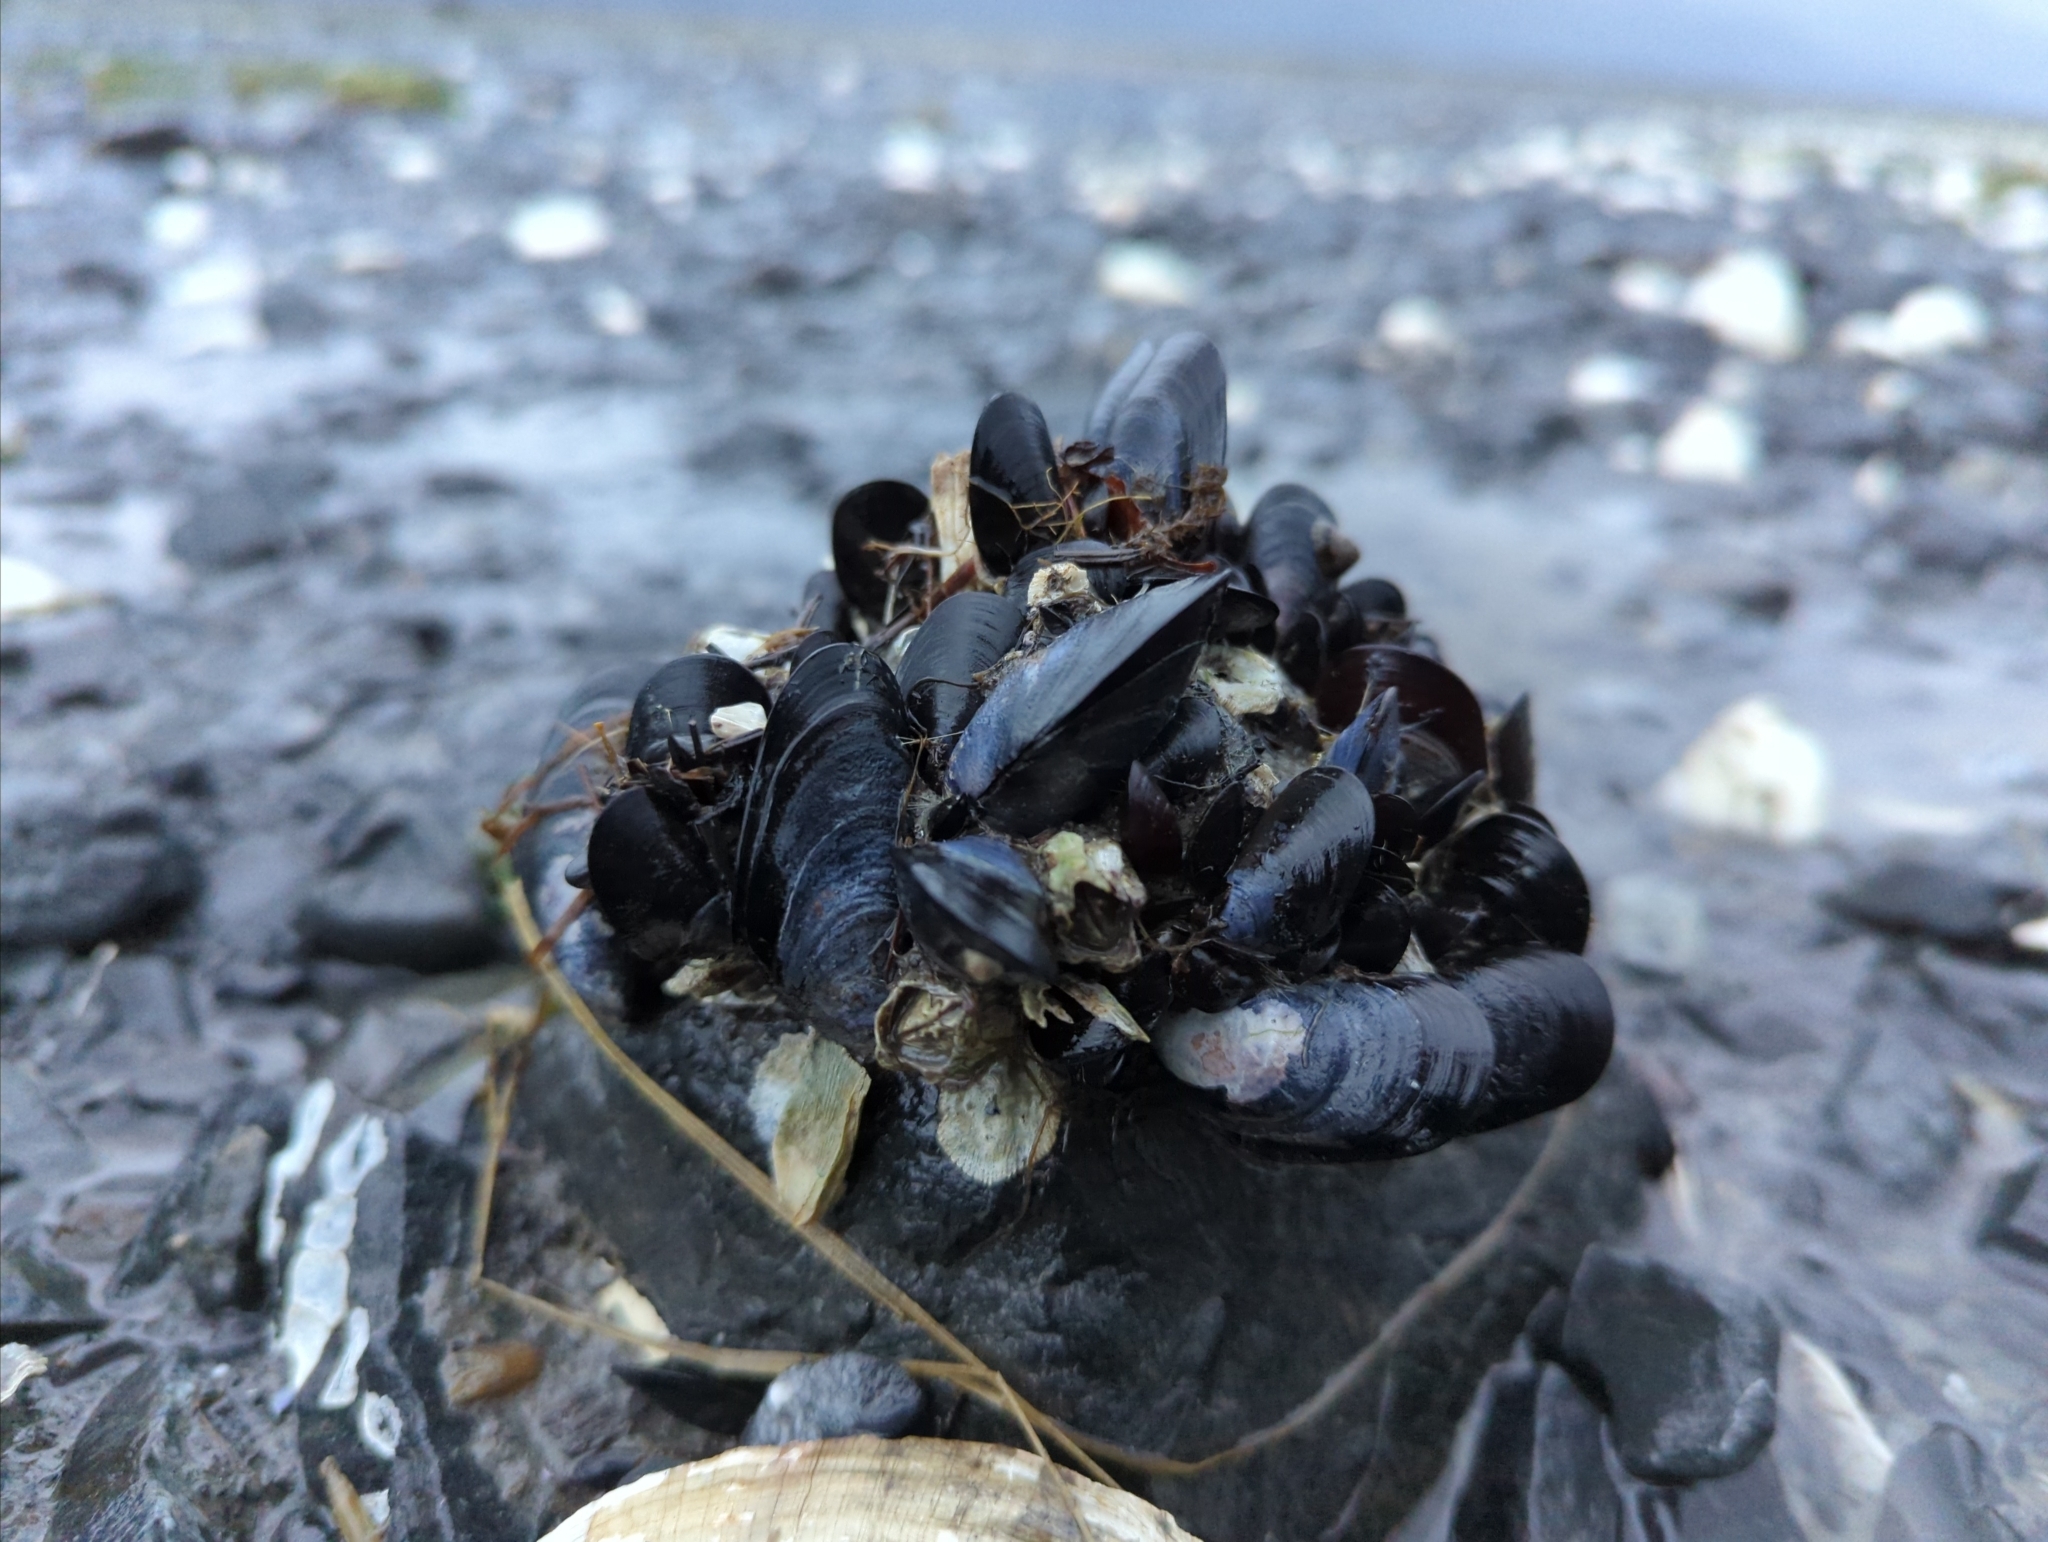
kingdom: Animalia
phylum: Mollusca
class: Bivalvia
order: Mytilida
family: Mytilidae
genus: Mytilus
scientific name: Mytilus trossulus
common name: Northern blue mussel
